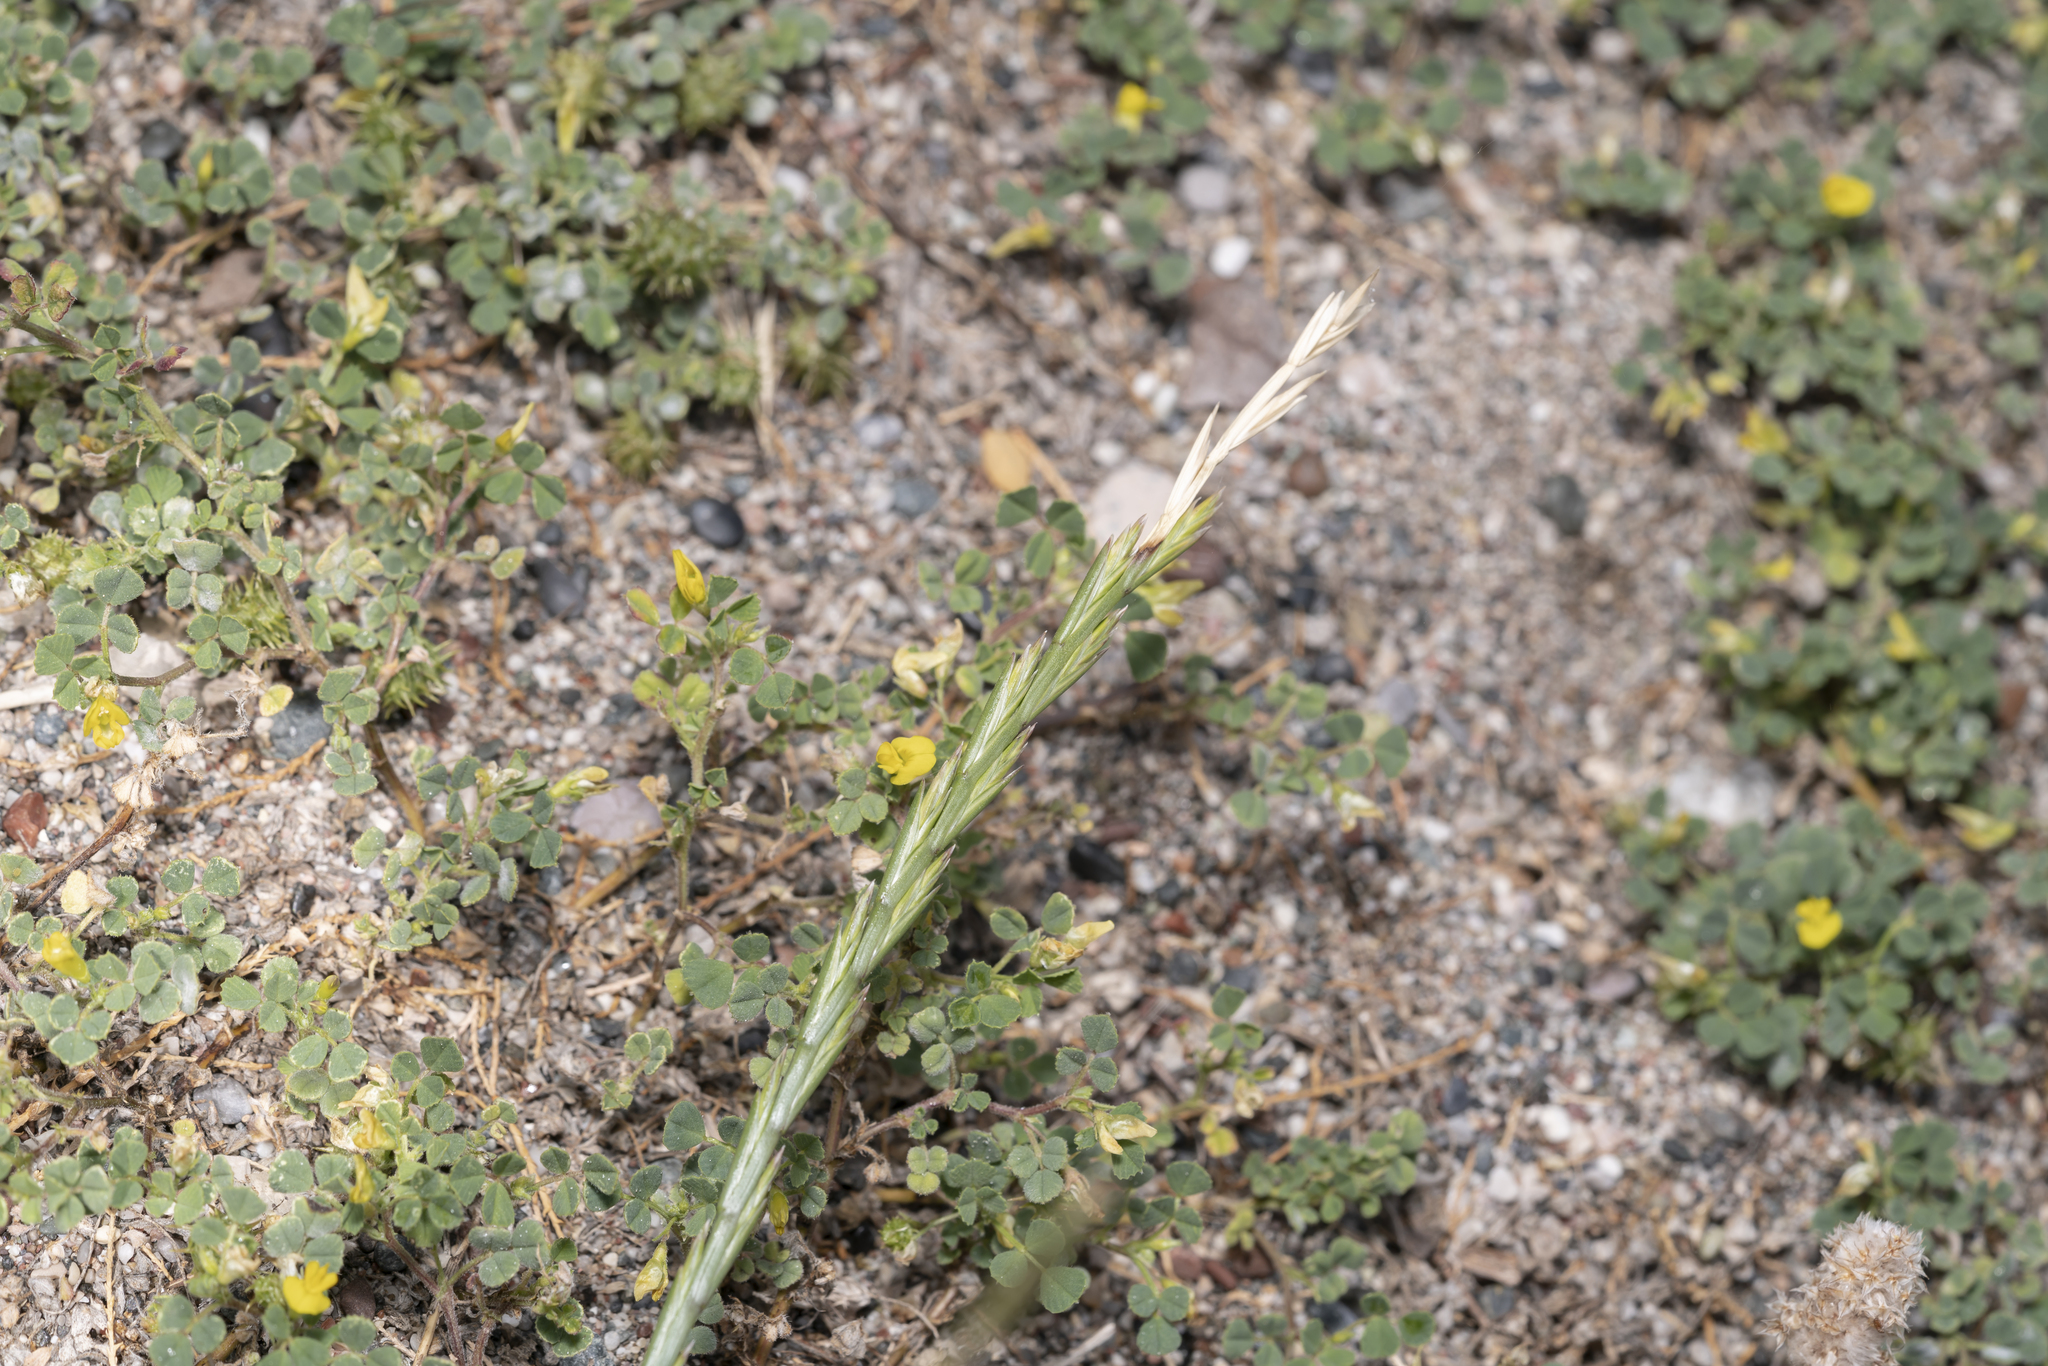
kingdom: Plantae
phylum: Tracheophyta
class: Liliopsida
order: Poales
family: Poaceae
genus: Lolium
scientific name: Lolium rigidum
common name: Wimmera ryegrass
